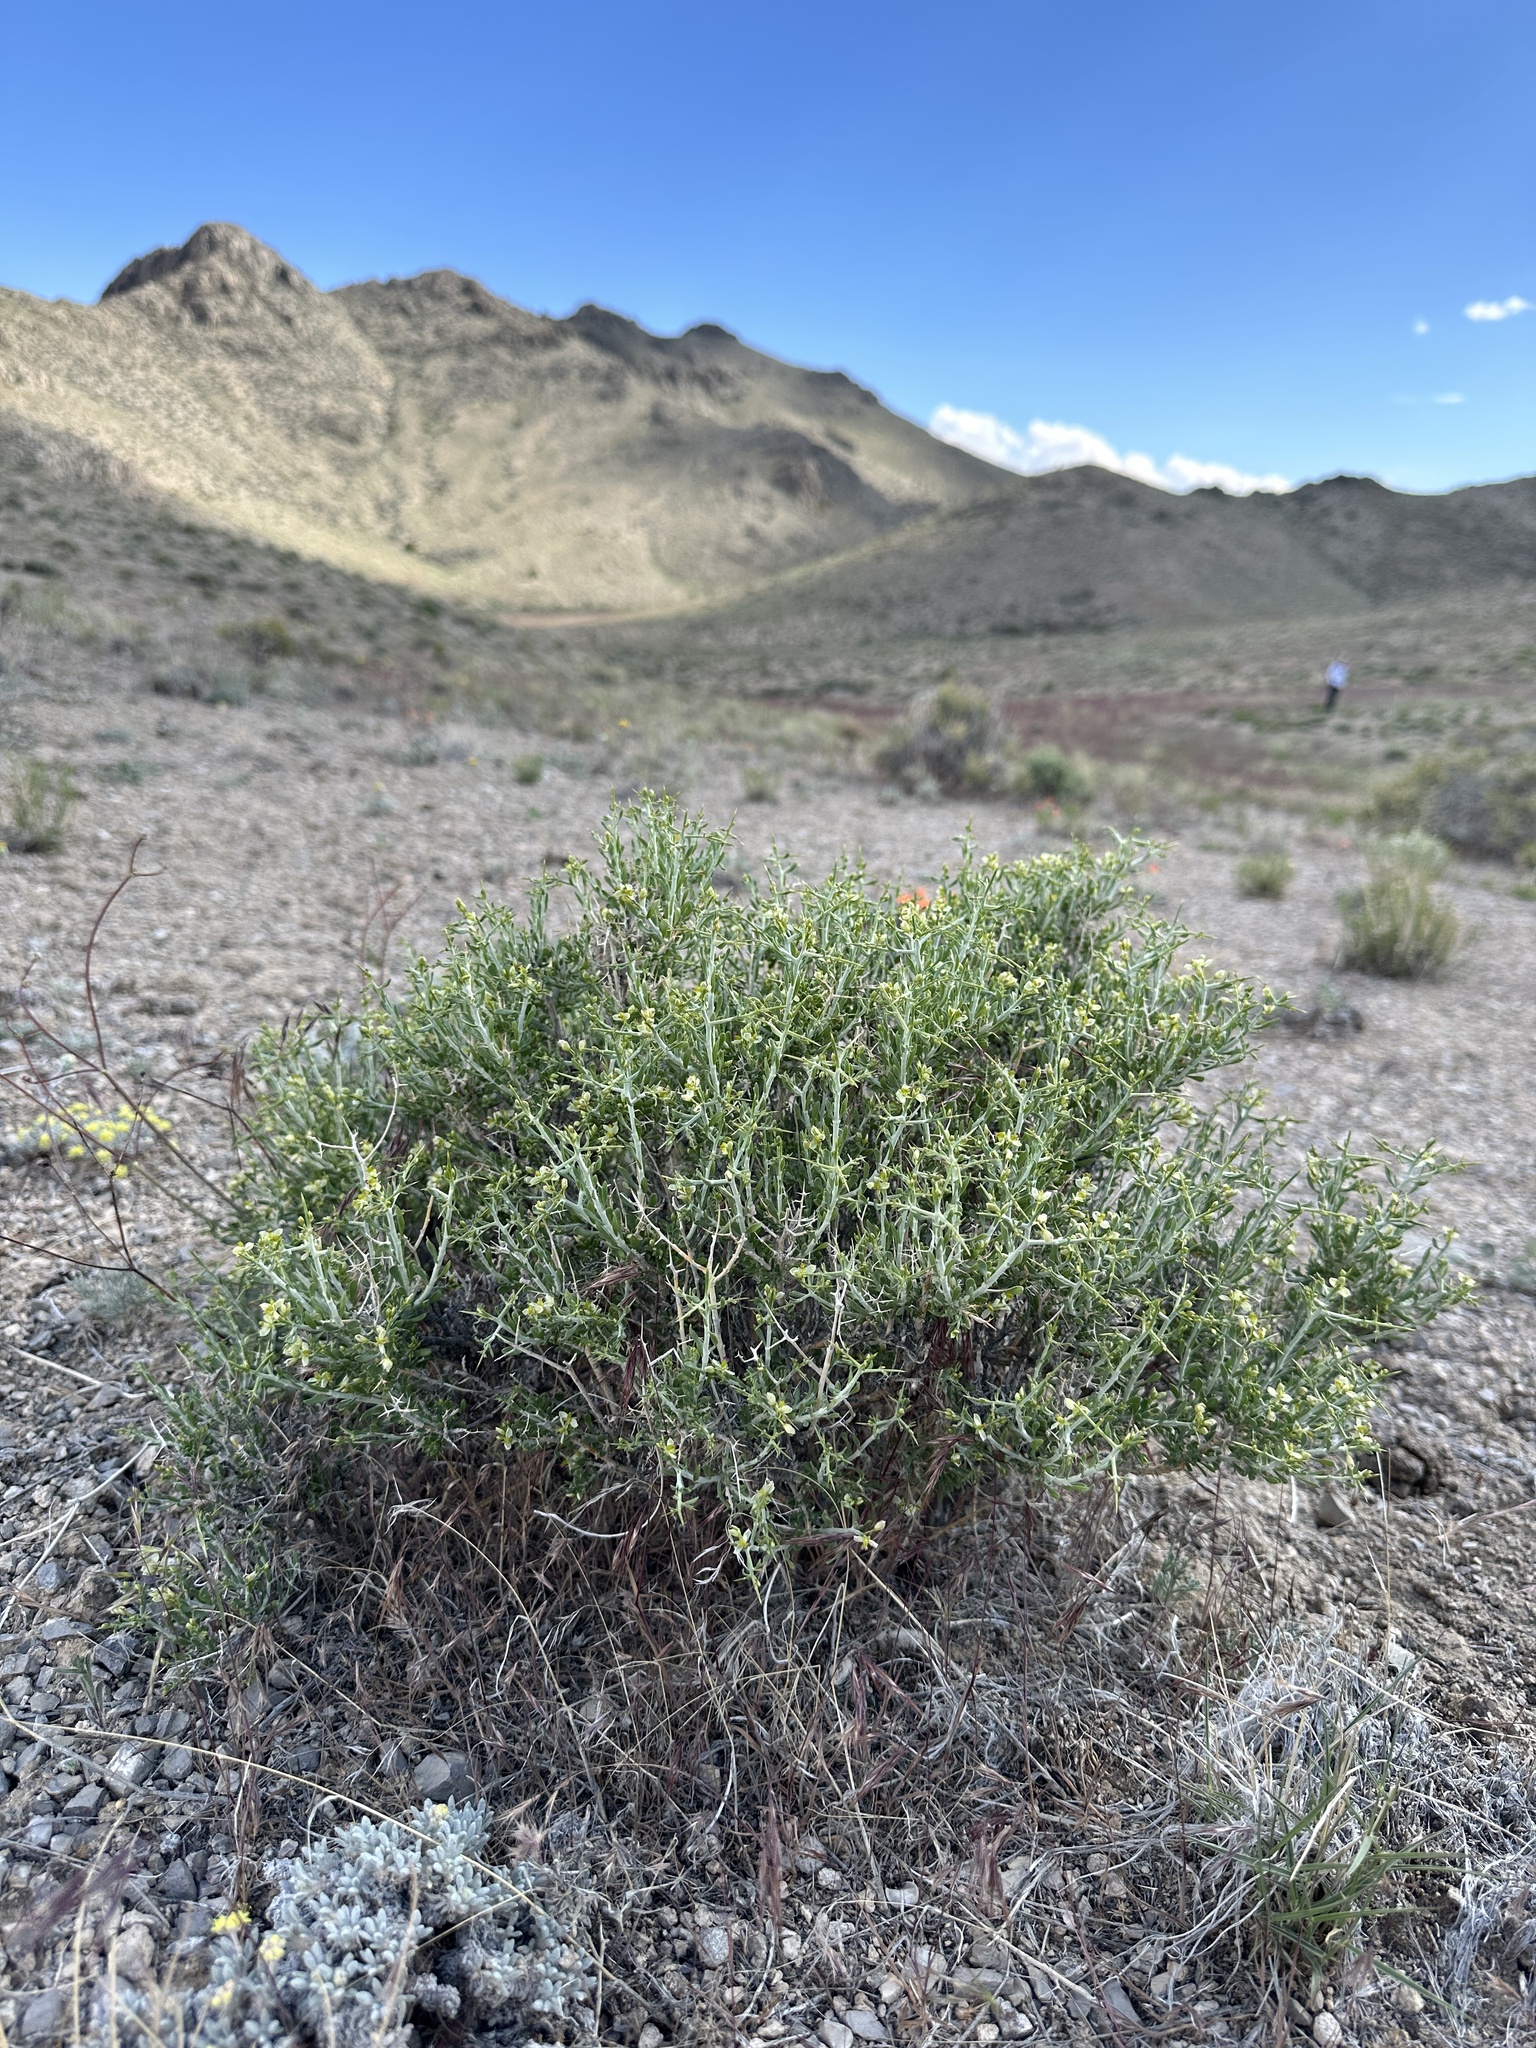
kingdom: Plantae
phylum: Tracheophyta
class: Magnoliopsida
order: Fabales
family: Polygalaceae
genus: Rhinotropis
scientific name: Rhinotropis intermontana
